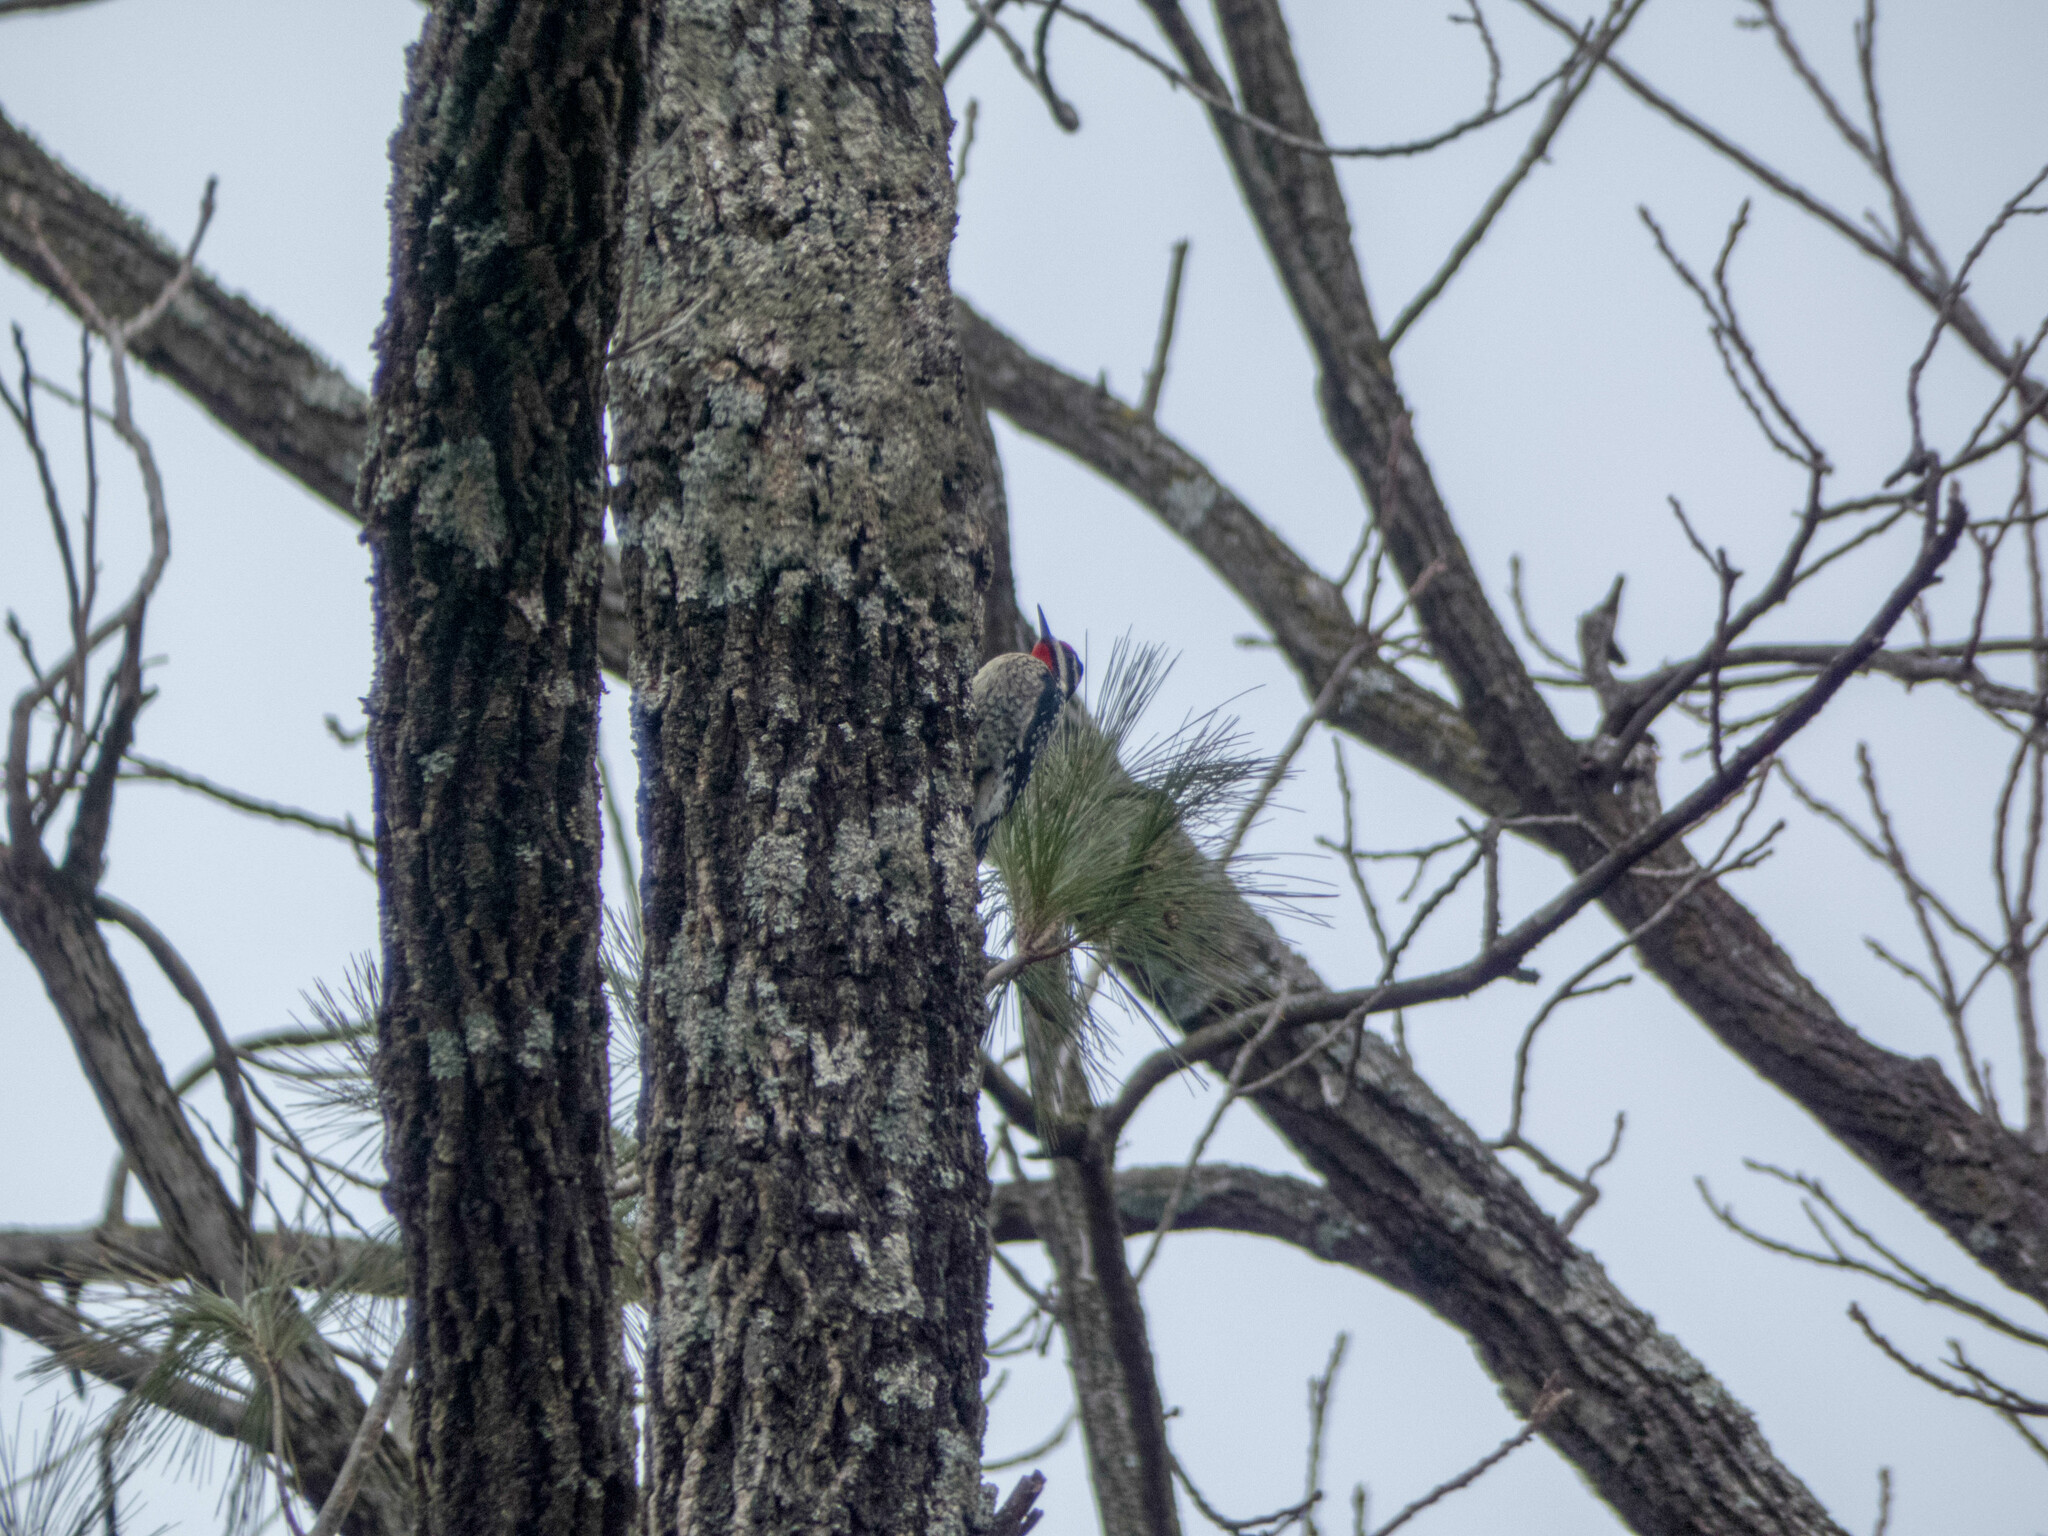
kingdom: Animalia
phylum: Chordata
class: Aves
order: Piciformes
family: Picidae
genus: Sphyrapicus
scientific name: Sphyrapicus varius
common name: Yellow-bellied sapsucker
